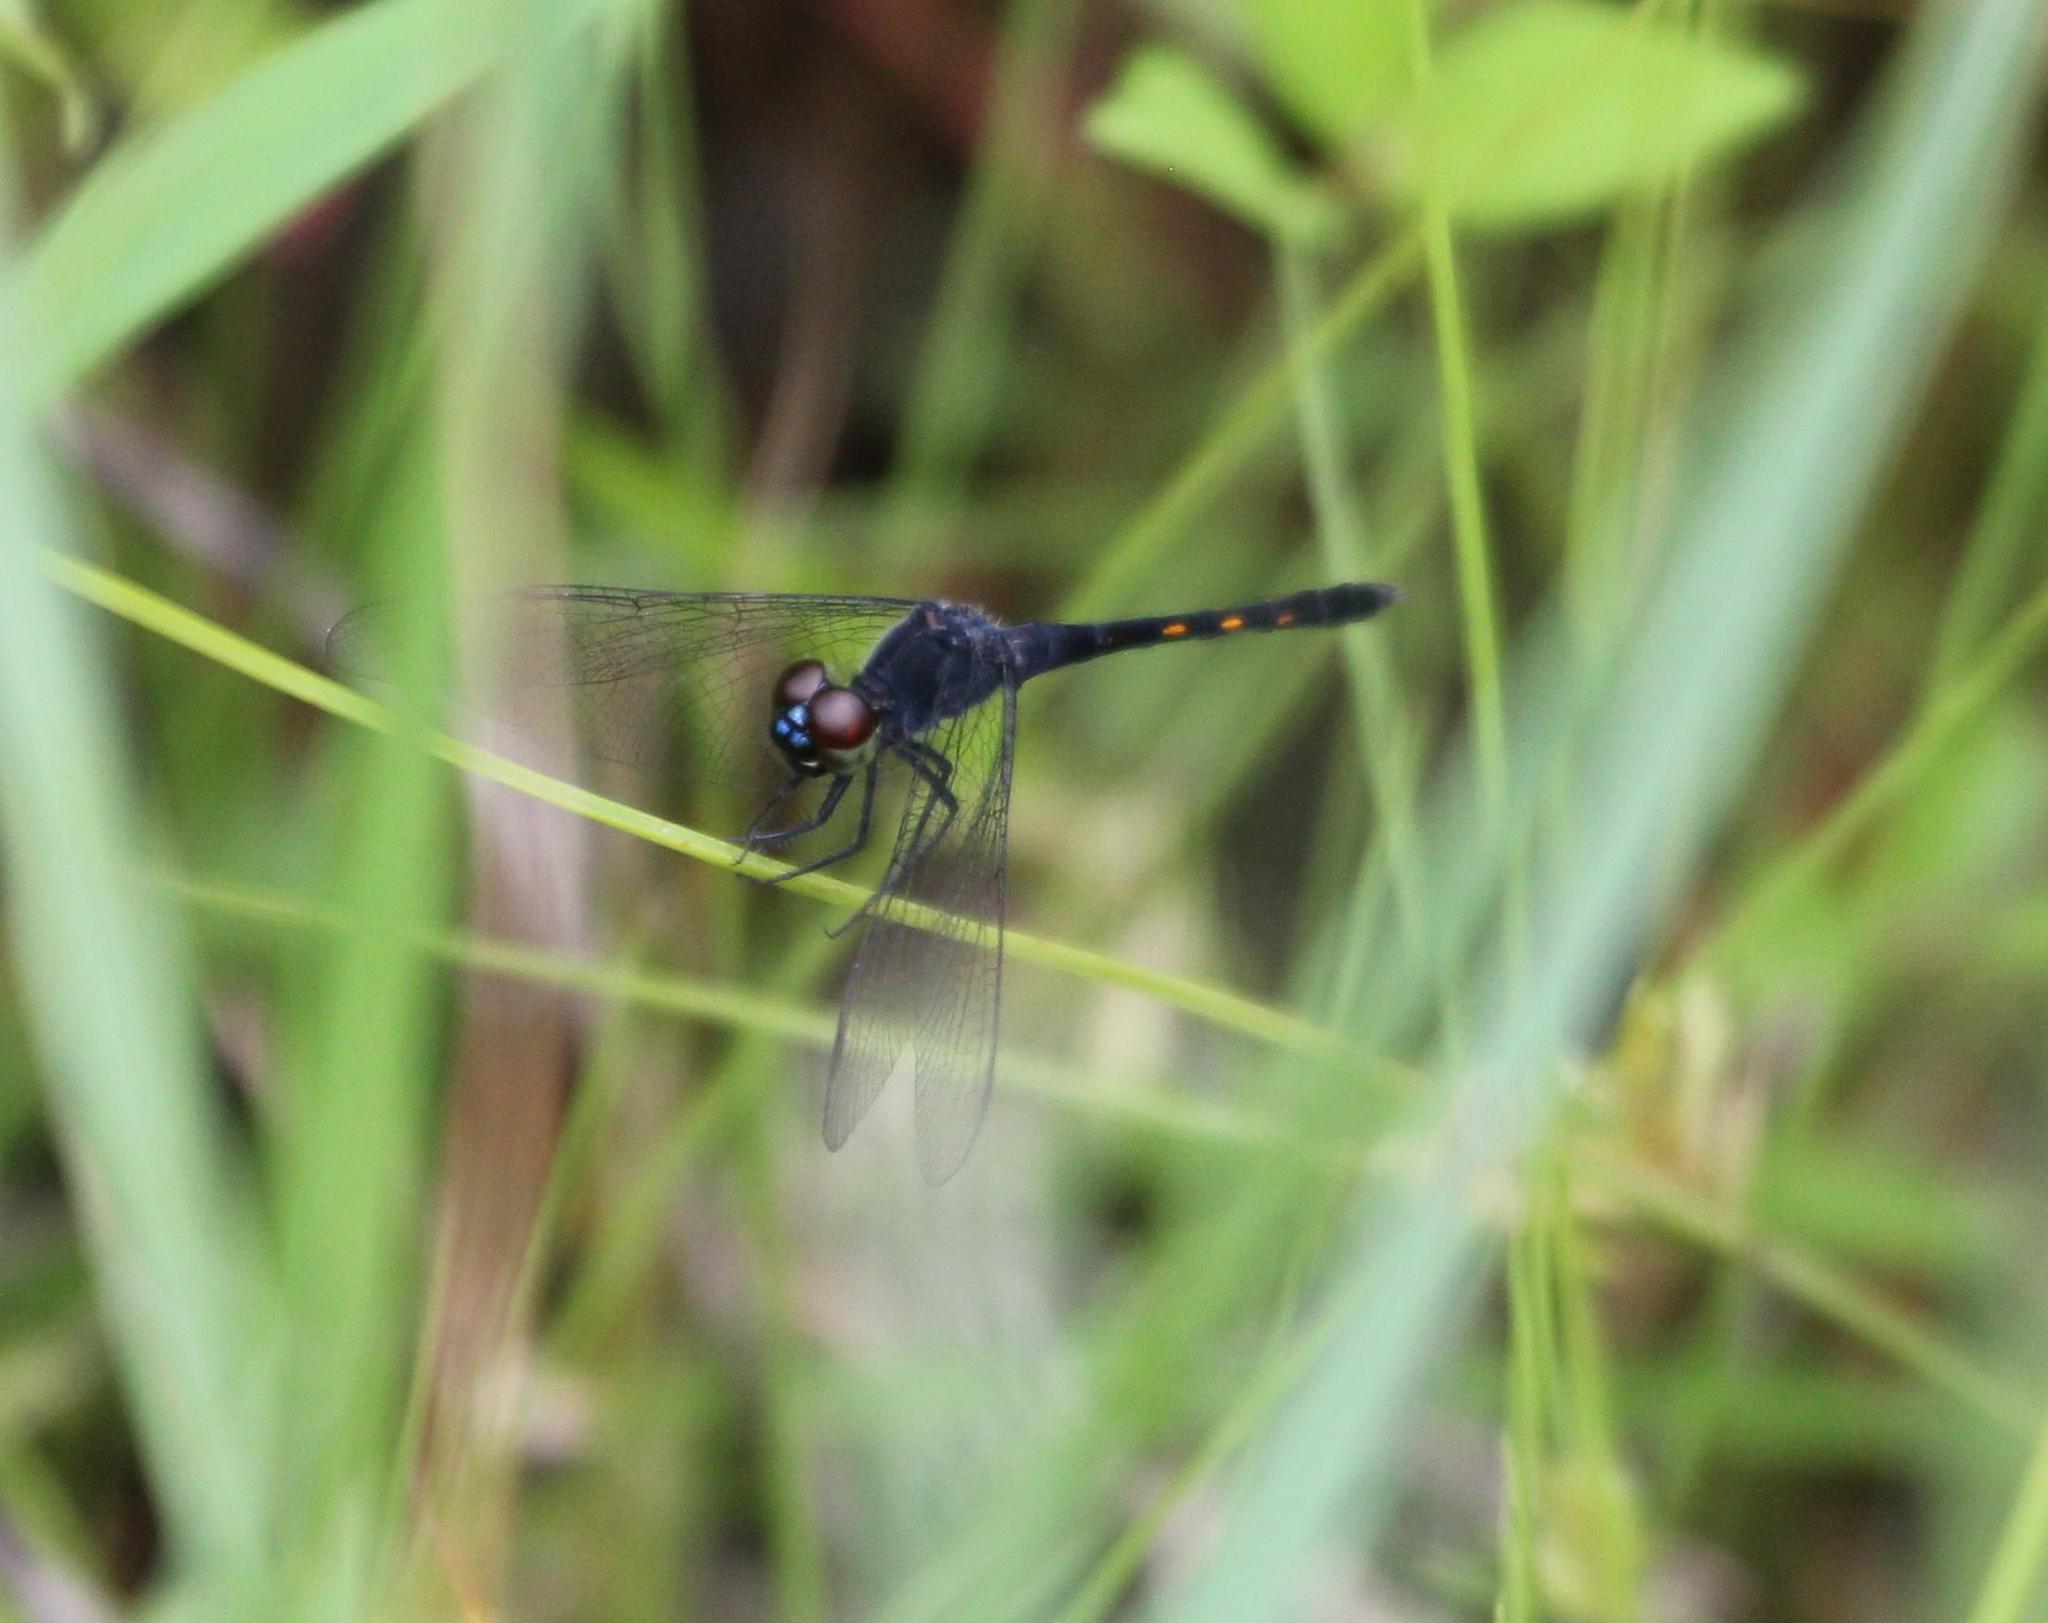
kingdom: Animalia
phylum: Arthropoda
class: Insecta
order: Odonata
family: Libellulidae
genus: Erythrodiplax
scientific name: Erythrodiplax berenice
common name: Seaside dragonlet
